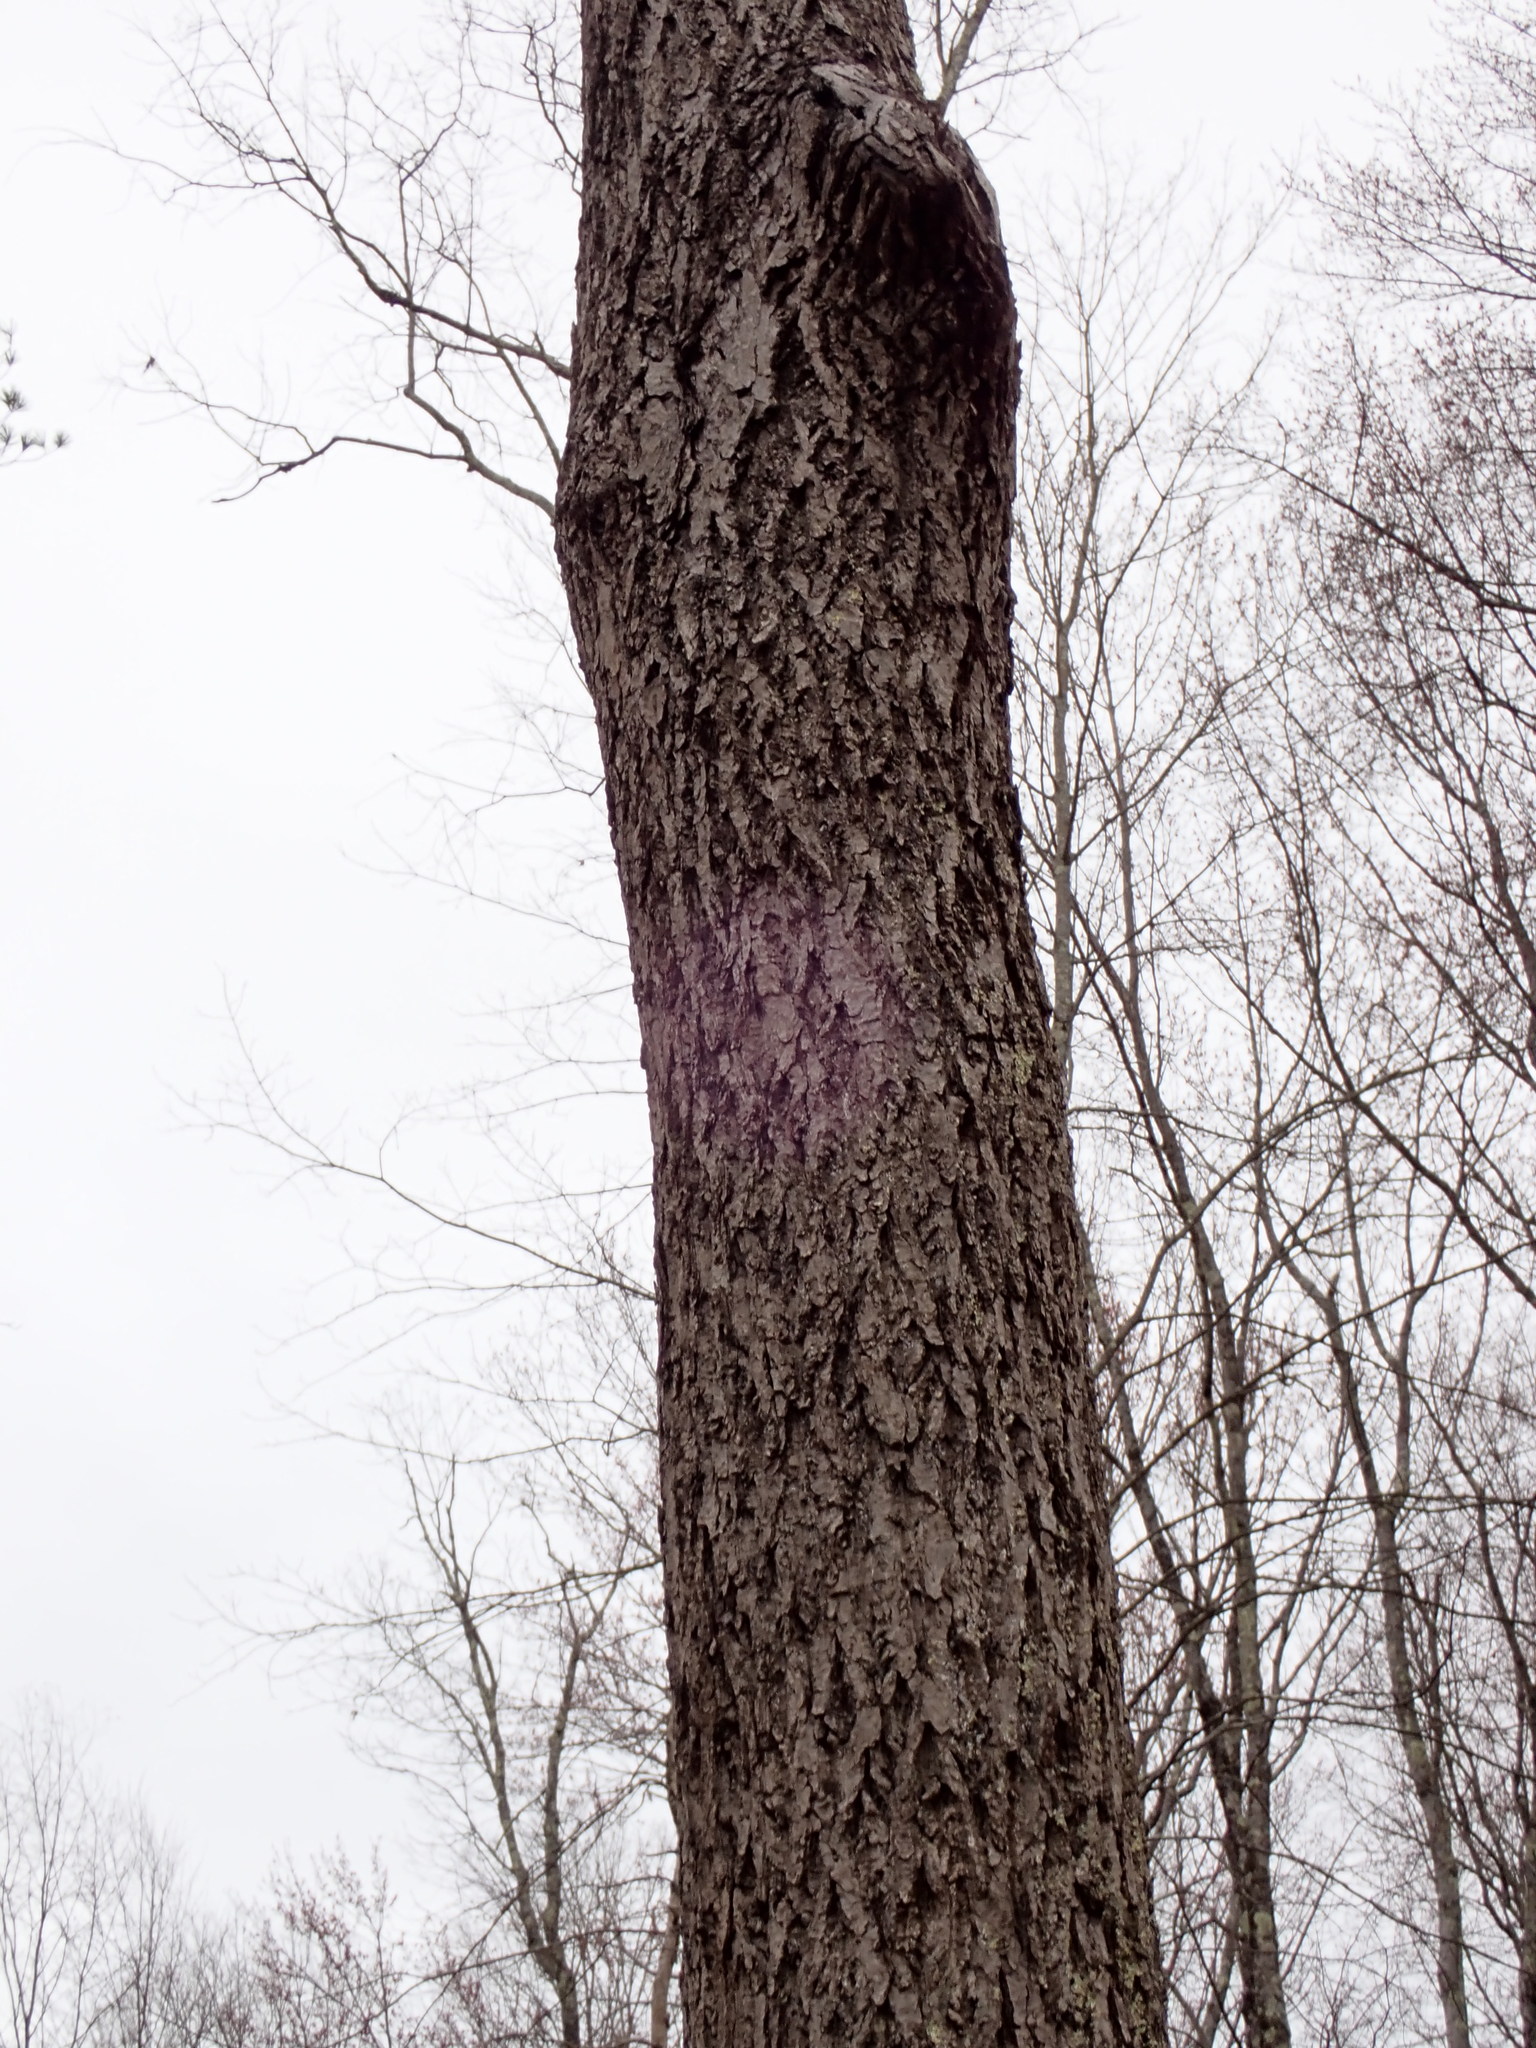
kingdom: Plantae
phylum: Tracheophyta
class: Magnoliopsida
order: Fagales
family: Juglandaceae
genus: Juglans
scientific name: Juglans cinerea
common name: Butternut
